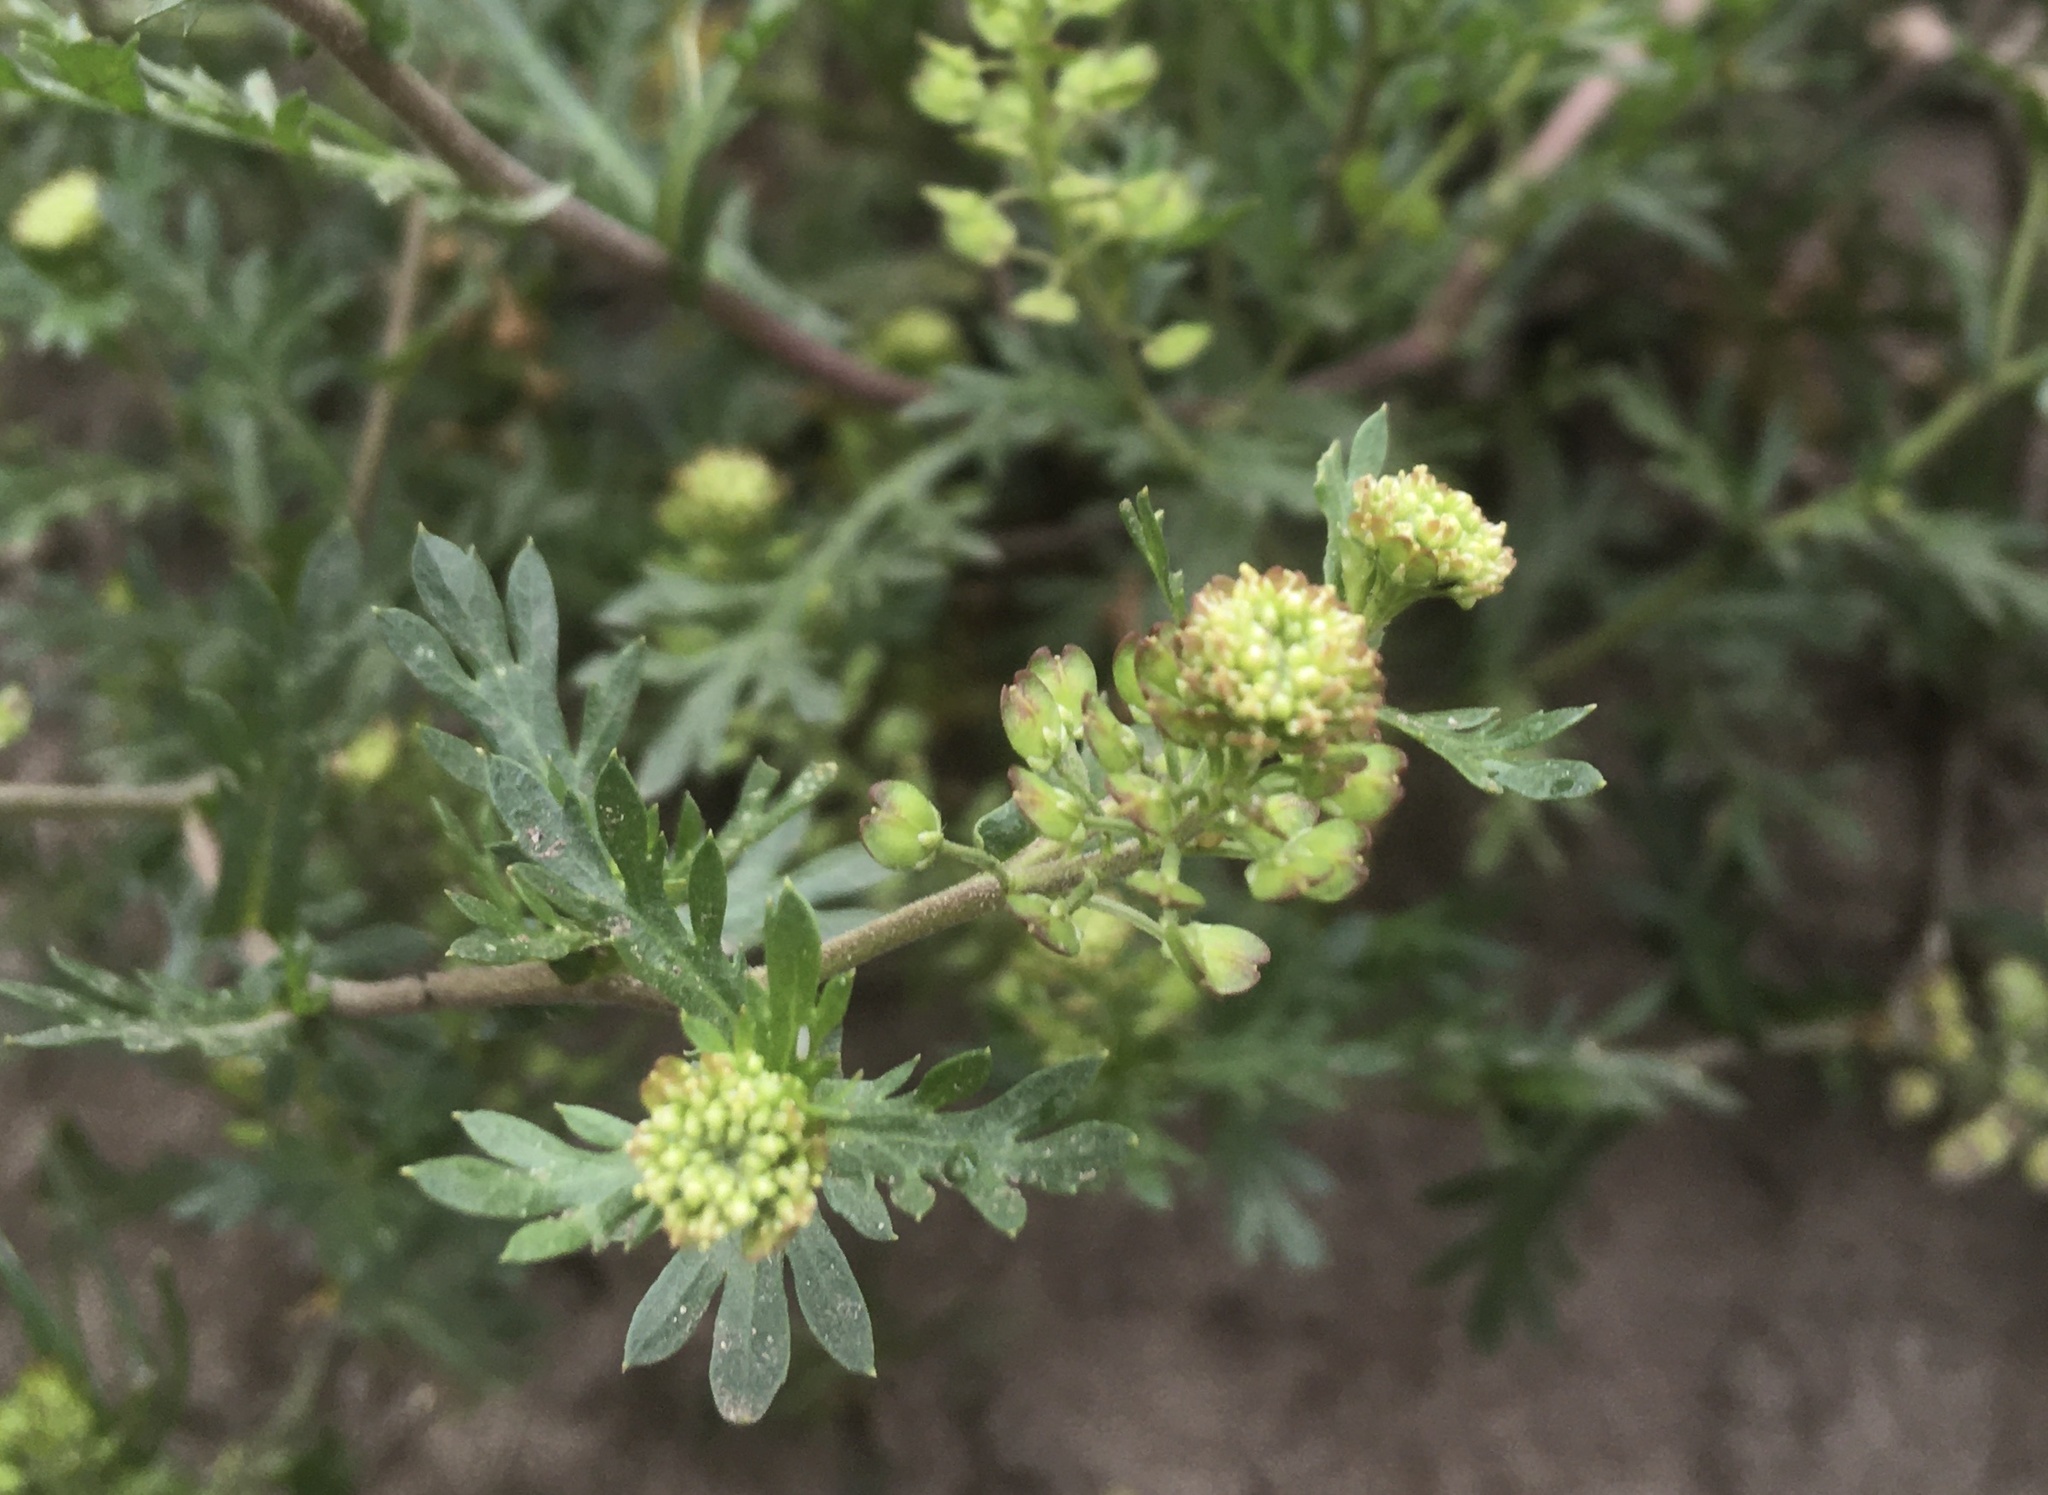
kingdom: Plantae
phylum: Tracheophyta
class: Magnoliopsida
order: Asterales
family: Asteraceae
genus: Cotula
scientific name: Cotula australis
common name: Australian waterbuttons
